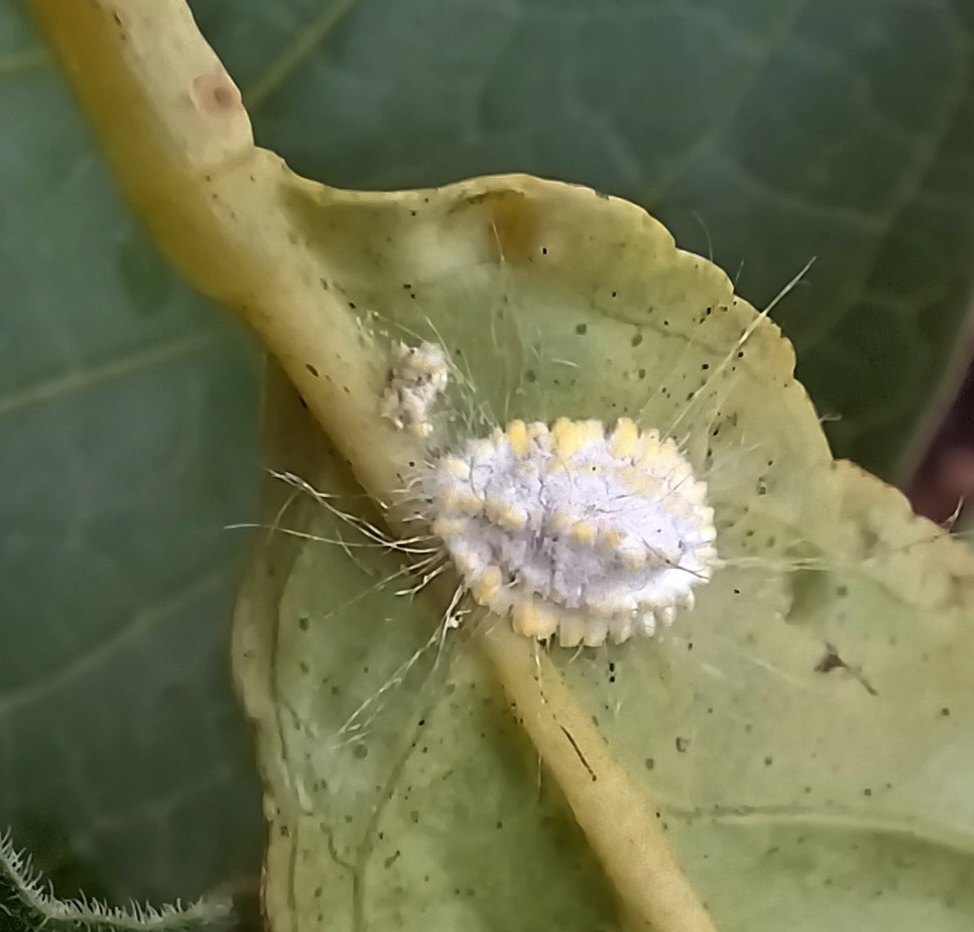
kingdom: Animalia
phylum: Arthropoda
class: Insecta
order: Hemiptera
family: Margarodidae
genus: Icerya
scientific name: Icerya seychellarum
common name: Iceplant scale
